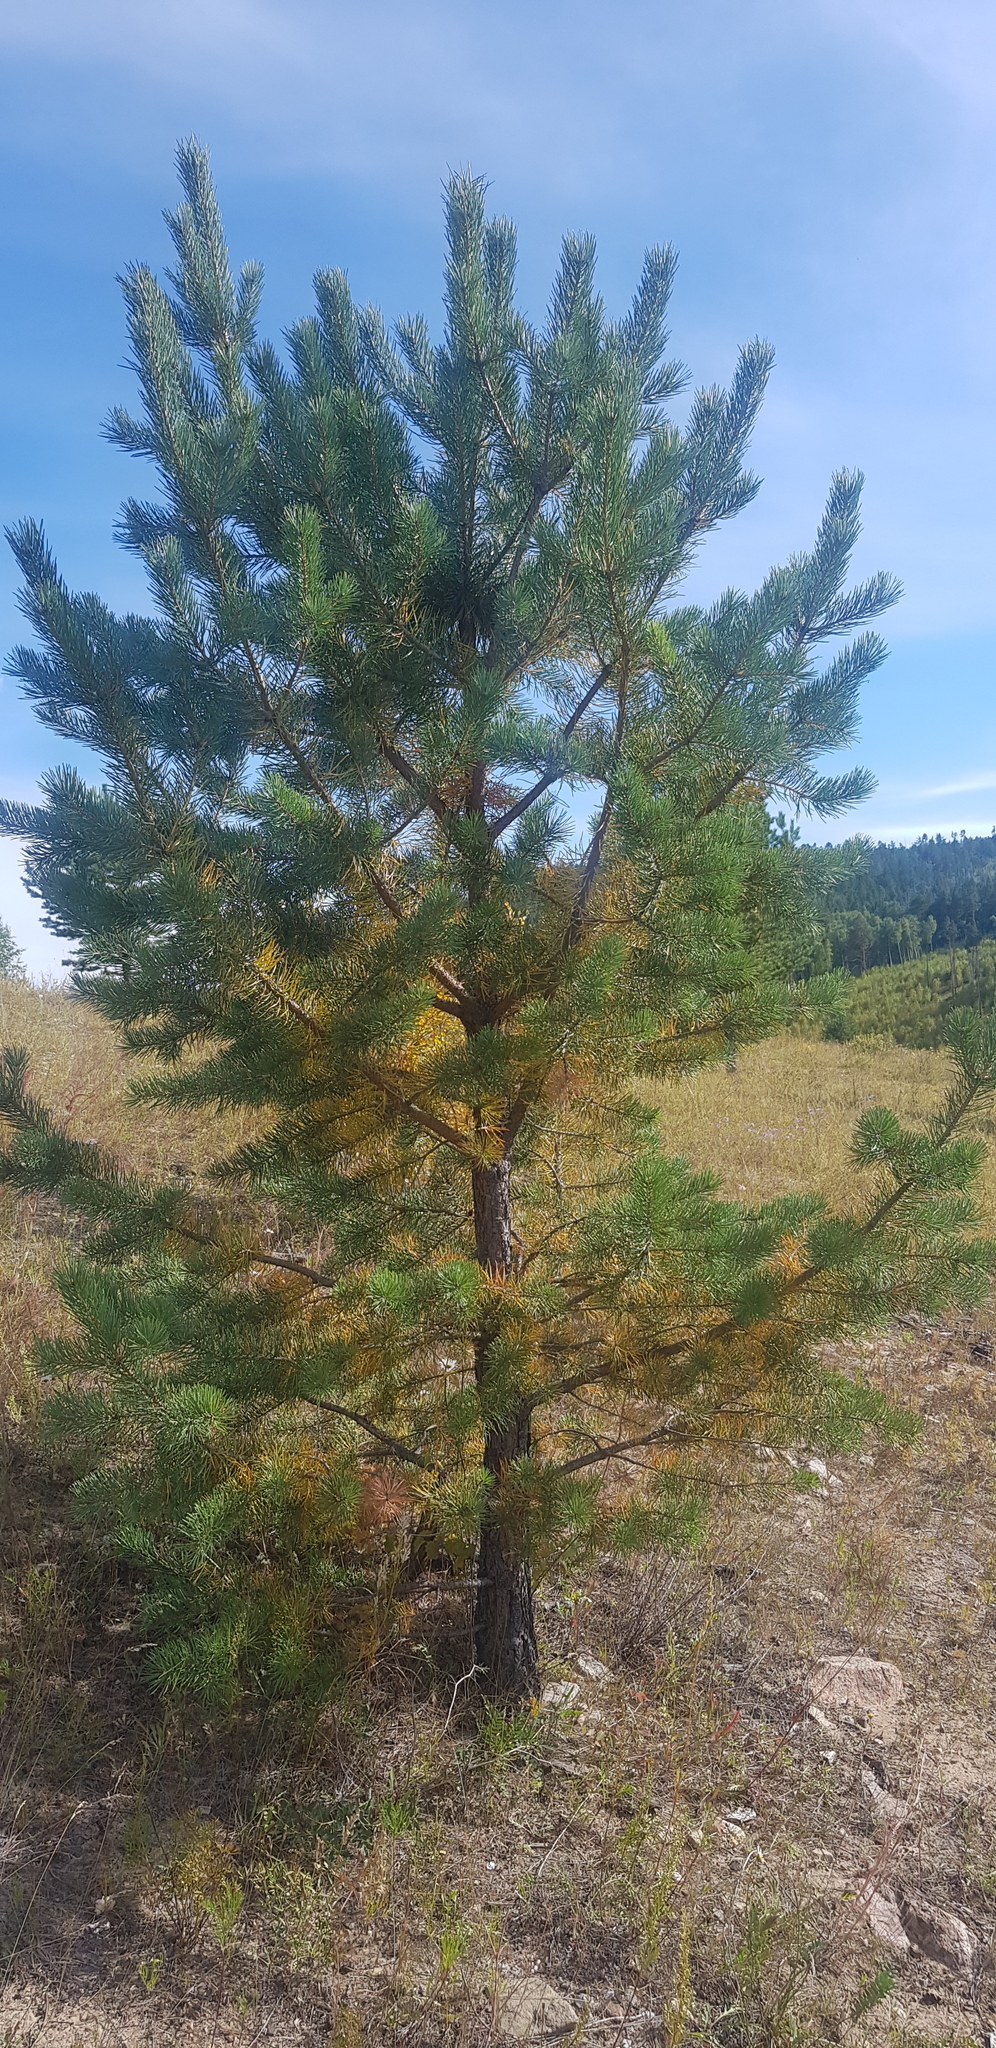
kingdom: Plantae
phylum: Tracheophyta
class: Pinopsida
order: Pinales
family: Pinaceae
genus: Pinus
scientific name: Pinus sylvestris
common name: Scots pine
